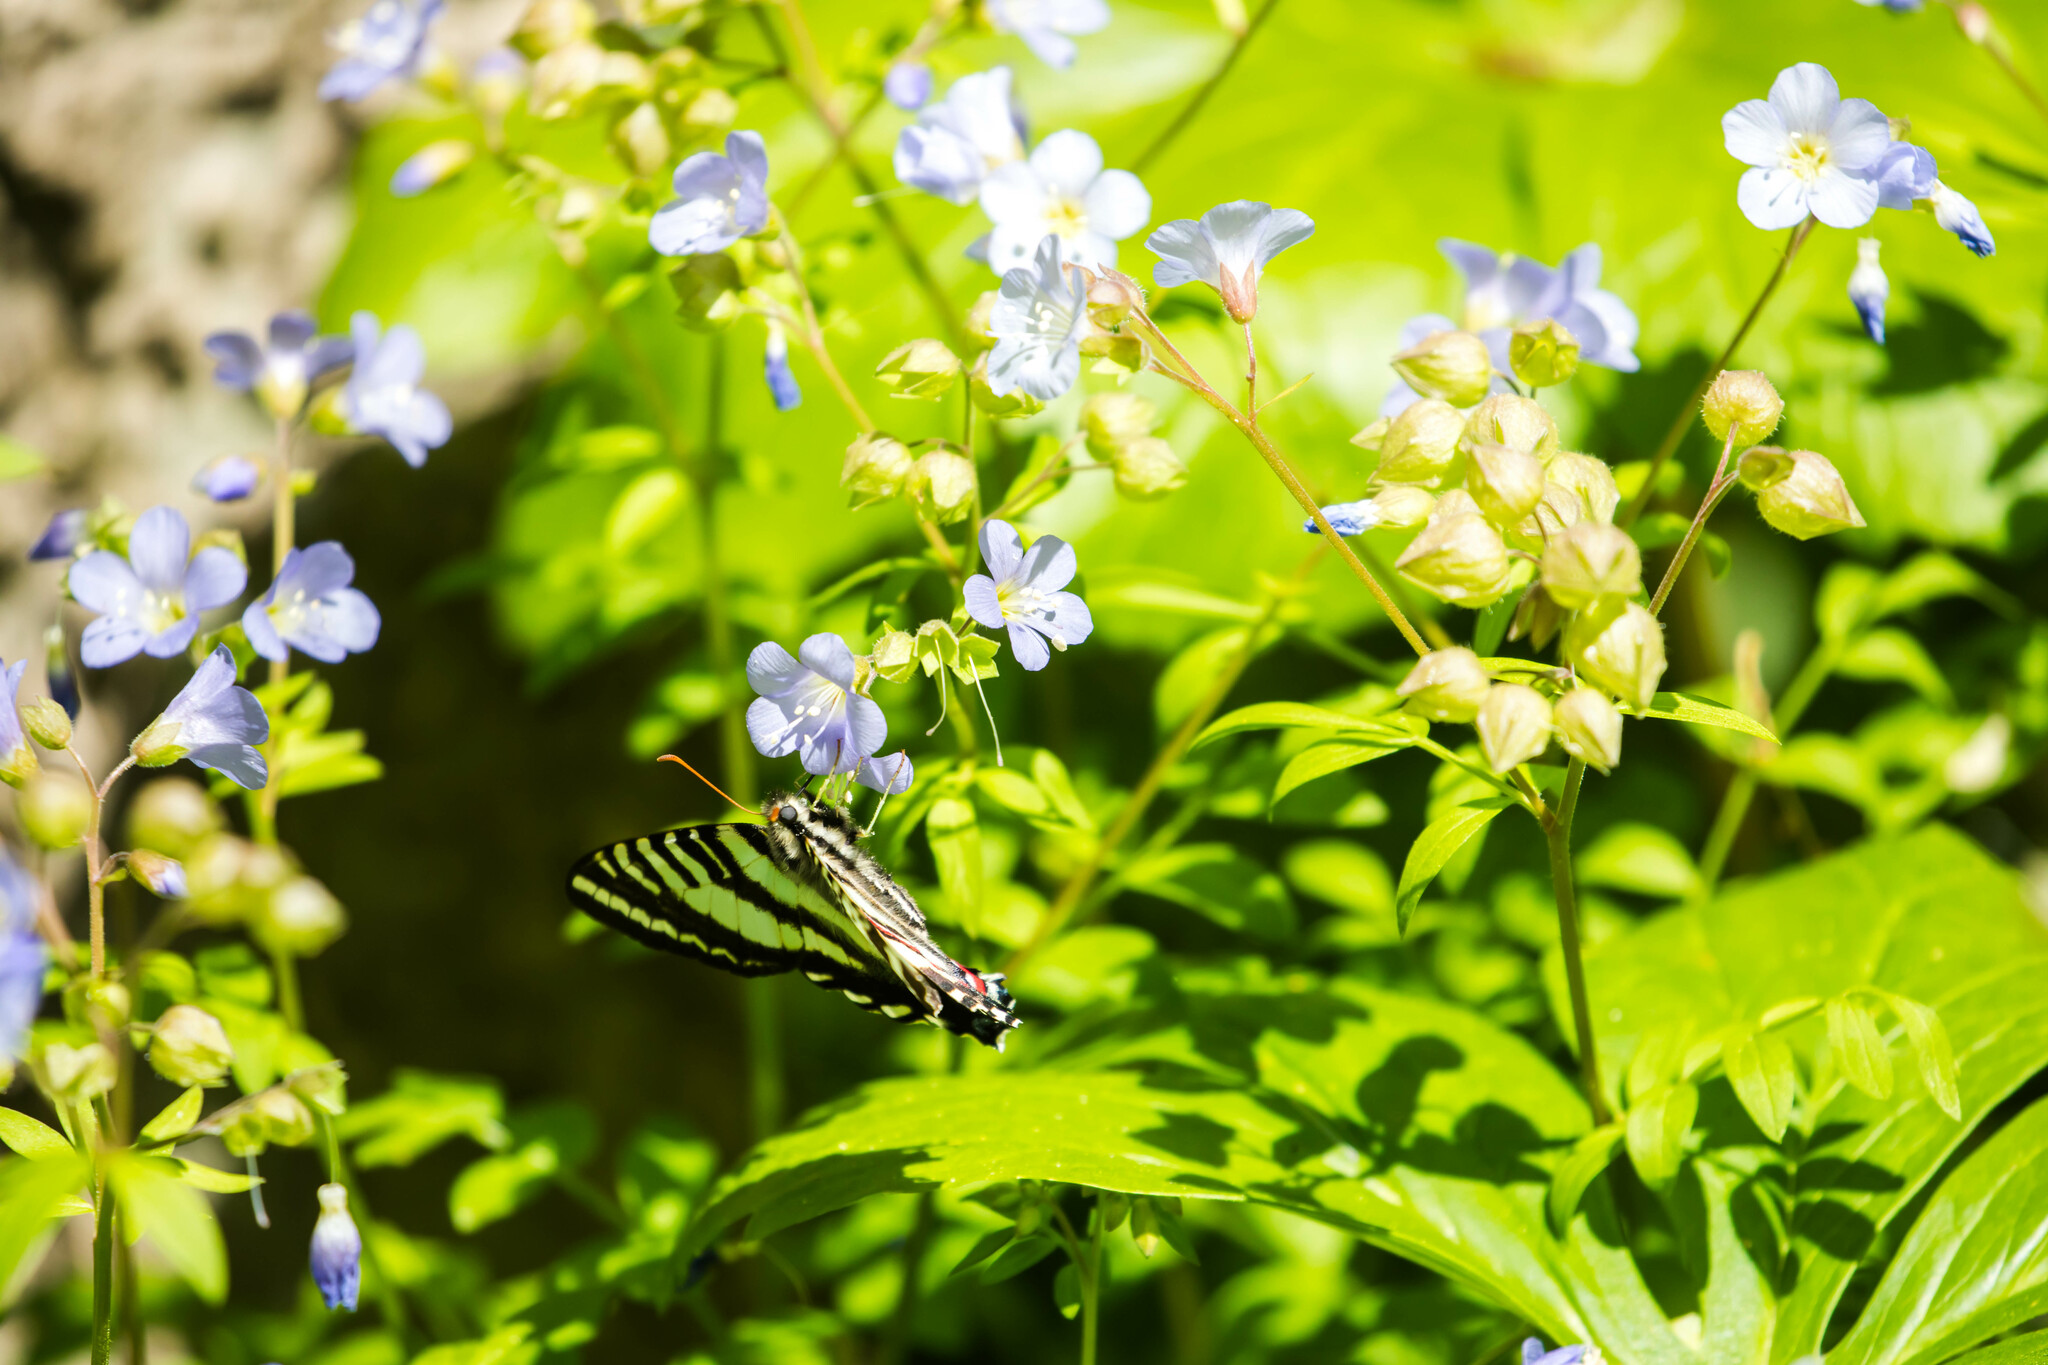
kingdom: Animalia
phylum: Arthropoda
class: Insecta
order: Lepidoptera
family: Papilionidae
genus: Protographium
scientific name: Protographium marcellus
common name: Zebra swallowtail
